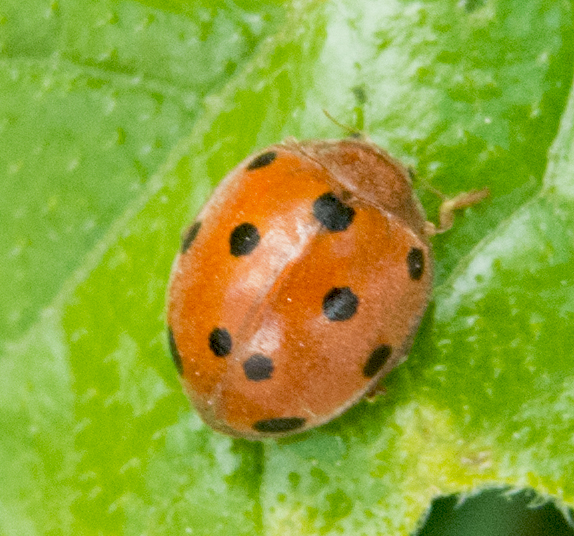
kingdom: Animalia
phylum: Arthropoda
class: Insecta
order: Coleoptera
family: Coccinellidae
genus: Henosepilachna
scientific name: Henosepilachna argus
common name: Bryony ladybird
